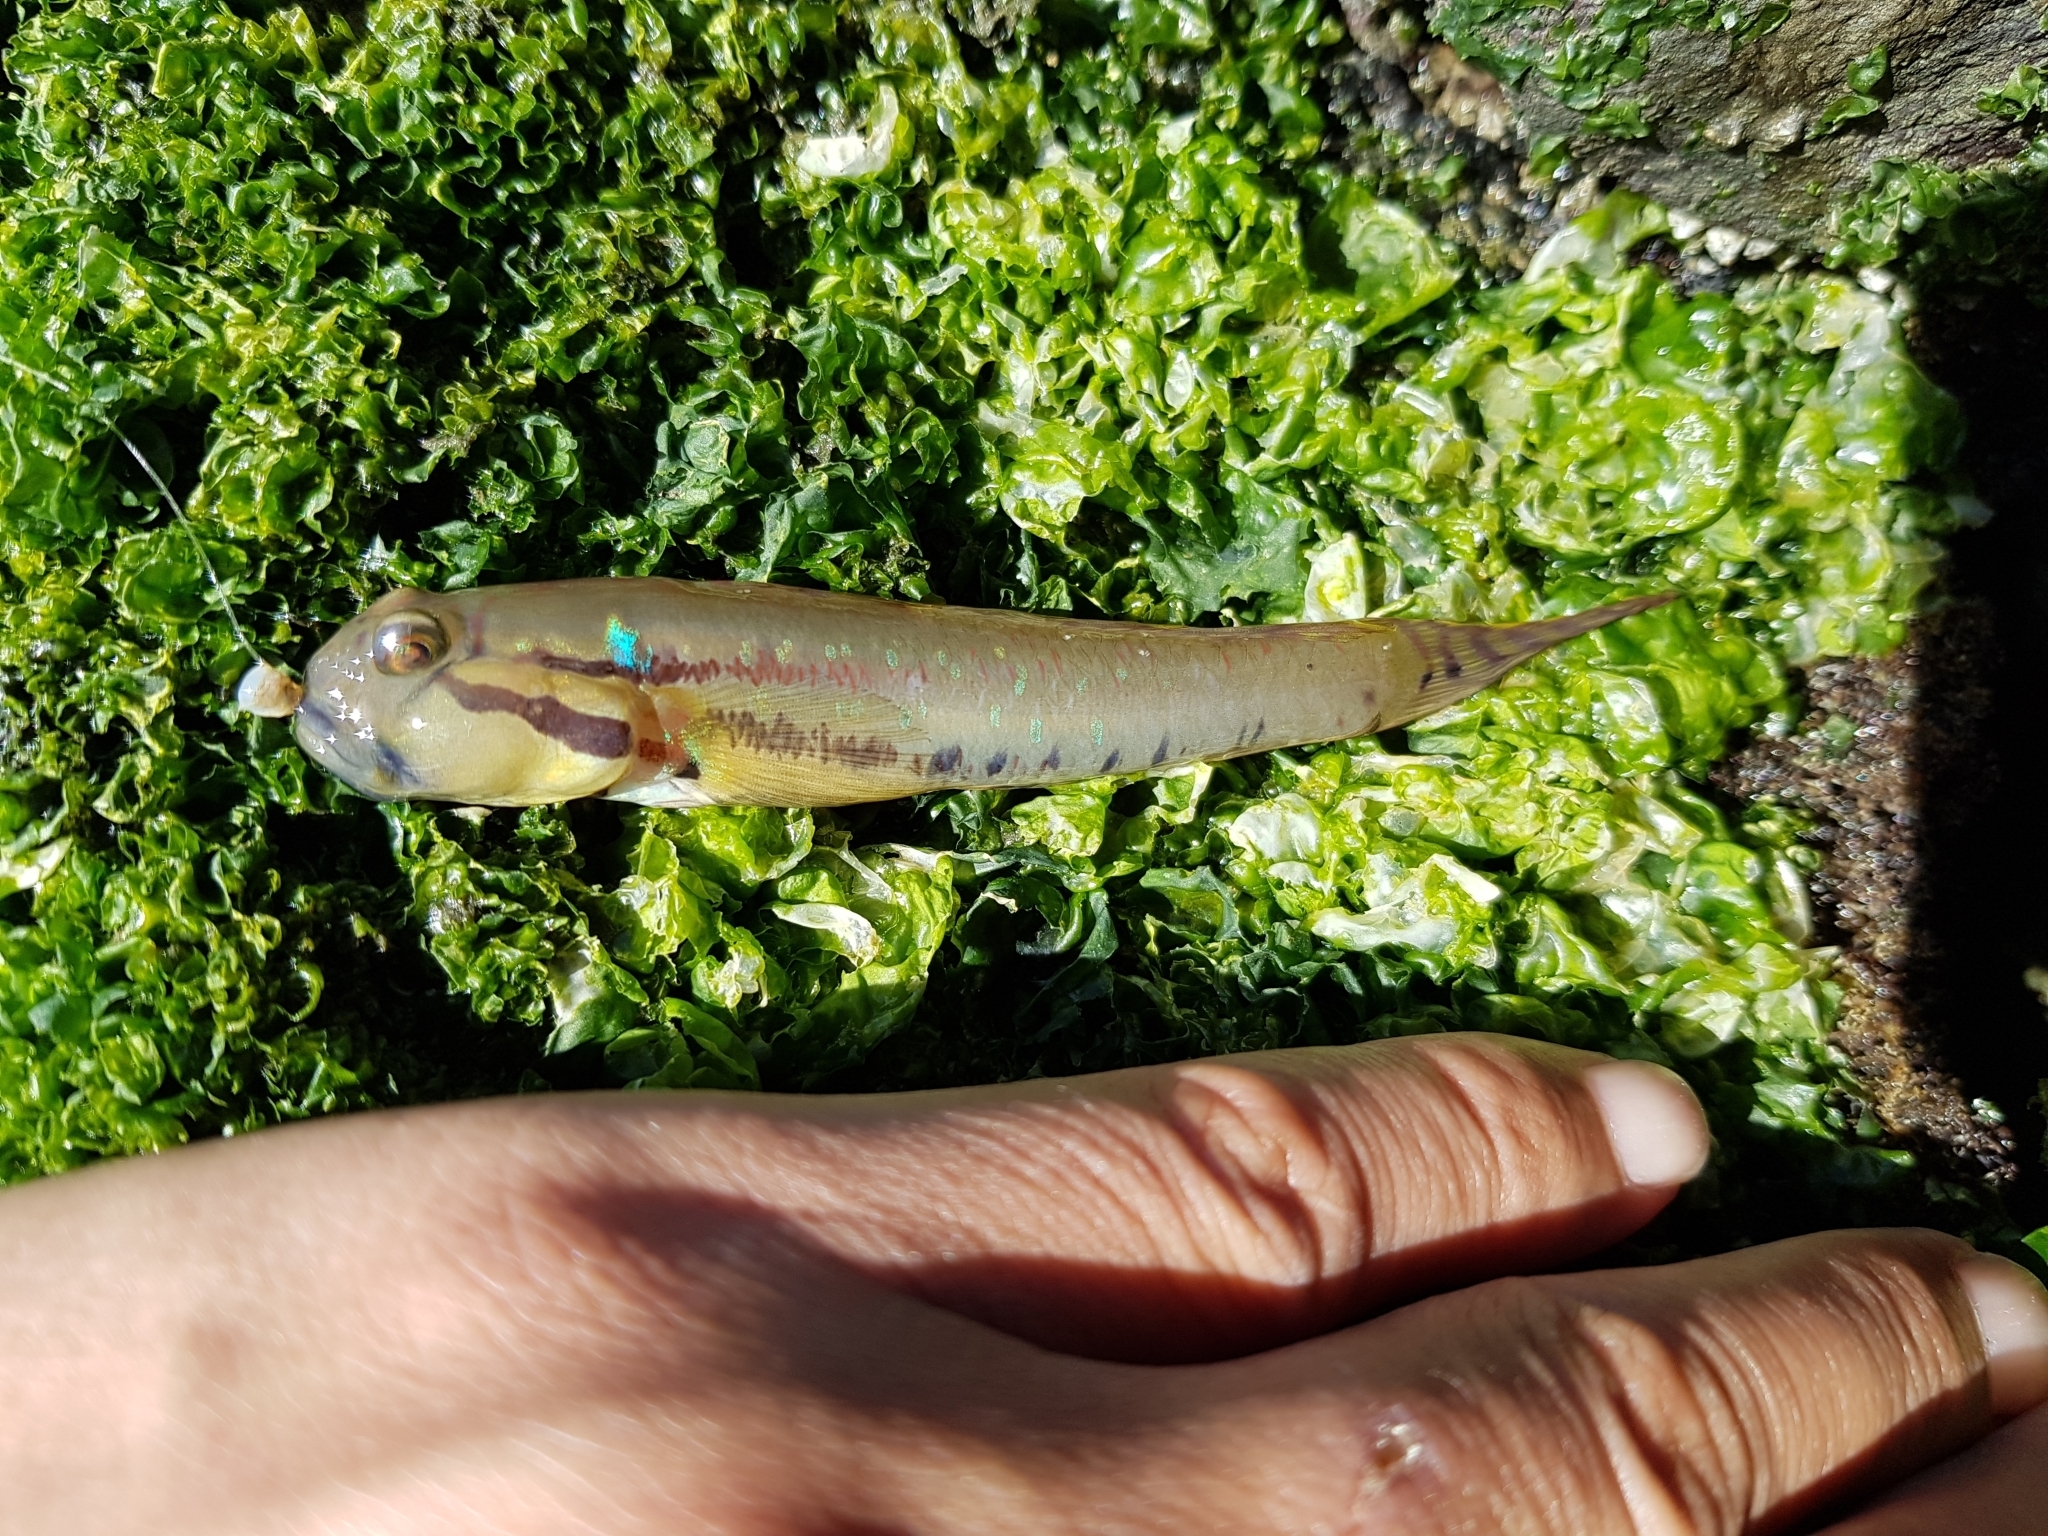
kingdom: Animalia
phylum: Chordata
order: Perciformes
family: Gobiidae
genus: Arenigobius
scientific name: Arenigobius bifrenatus
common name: Bridled goby
